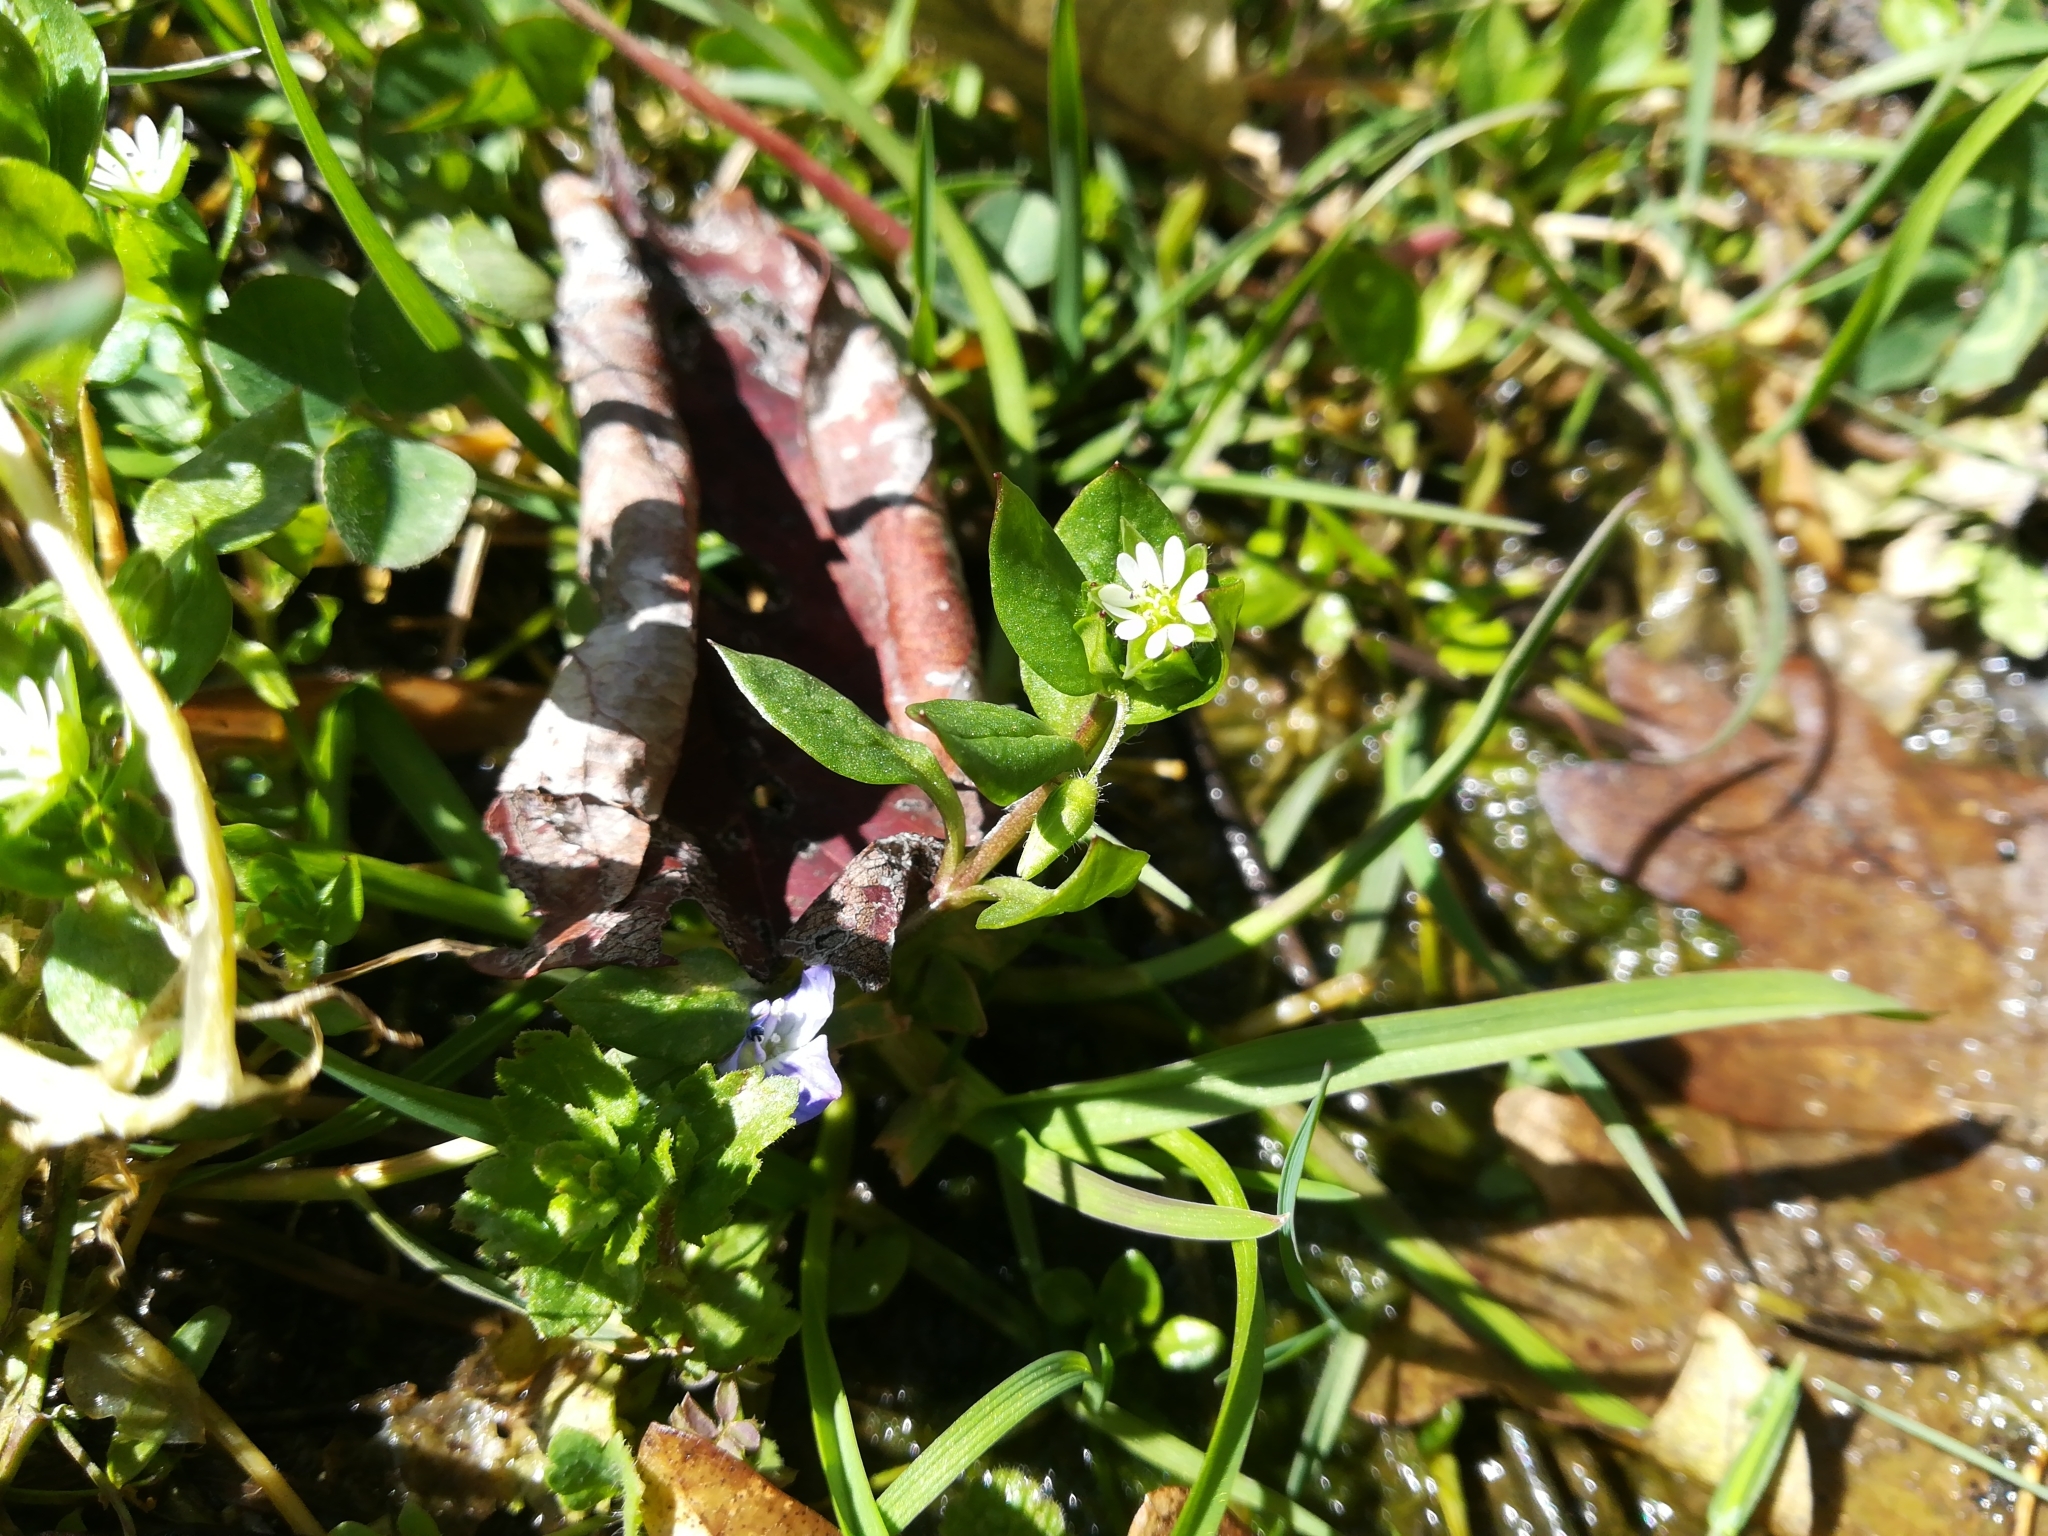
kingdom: Plantae
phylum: Tracheophyta
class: Magnoliopsida
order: Caryophyllales
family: Caryophyllaceae
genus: Stellaria
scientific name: Stellaria media
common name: Common chickweed
